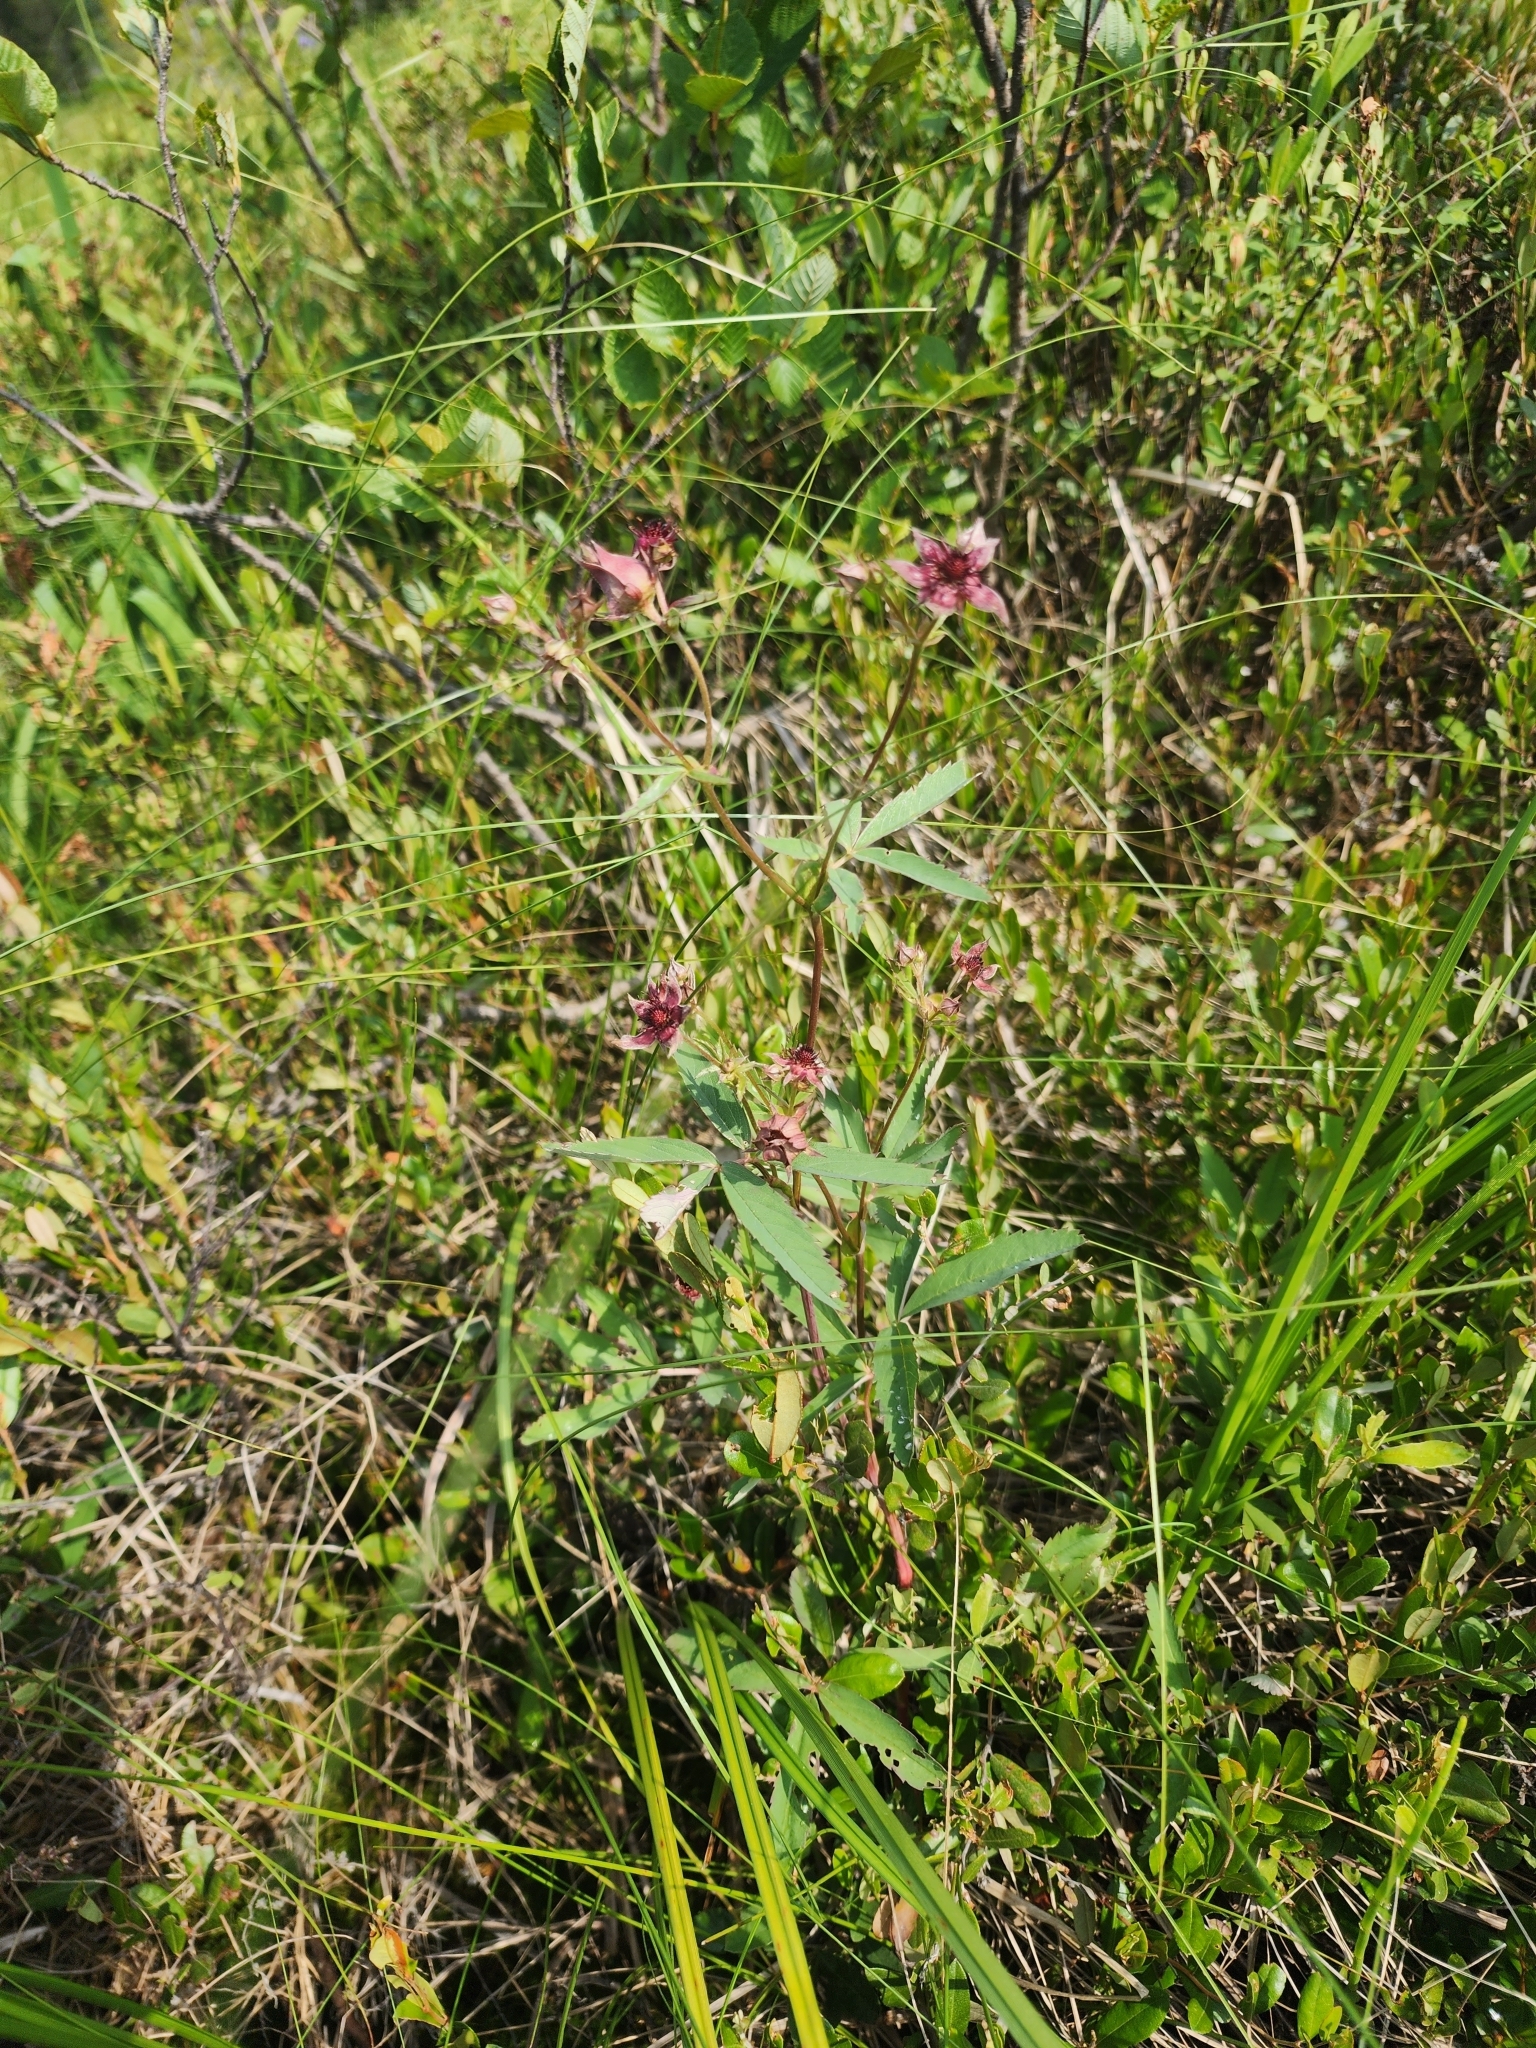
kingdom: Plantae
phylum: Tracheophyta
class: Magnoliopsida
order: Rosales
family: Rosaceae
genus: Comarum
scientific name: Comarum palustre
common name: Marsh cinquefoil
